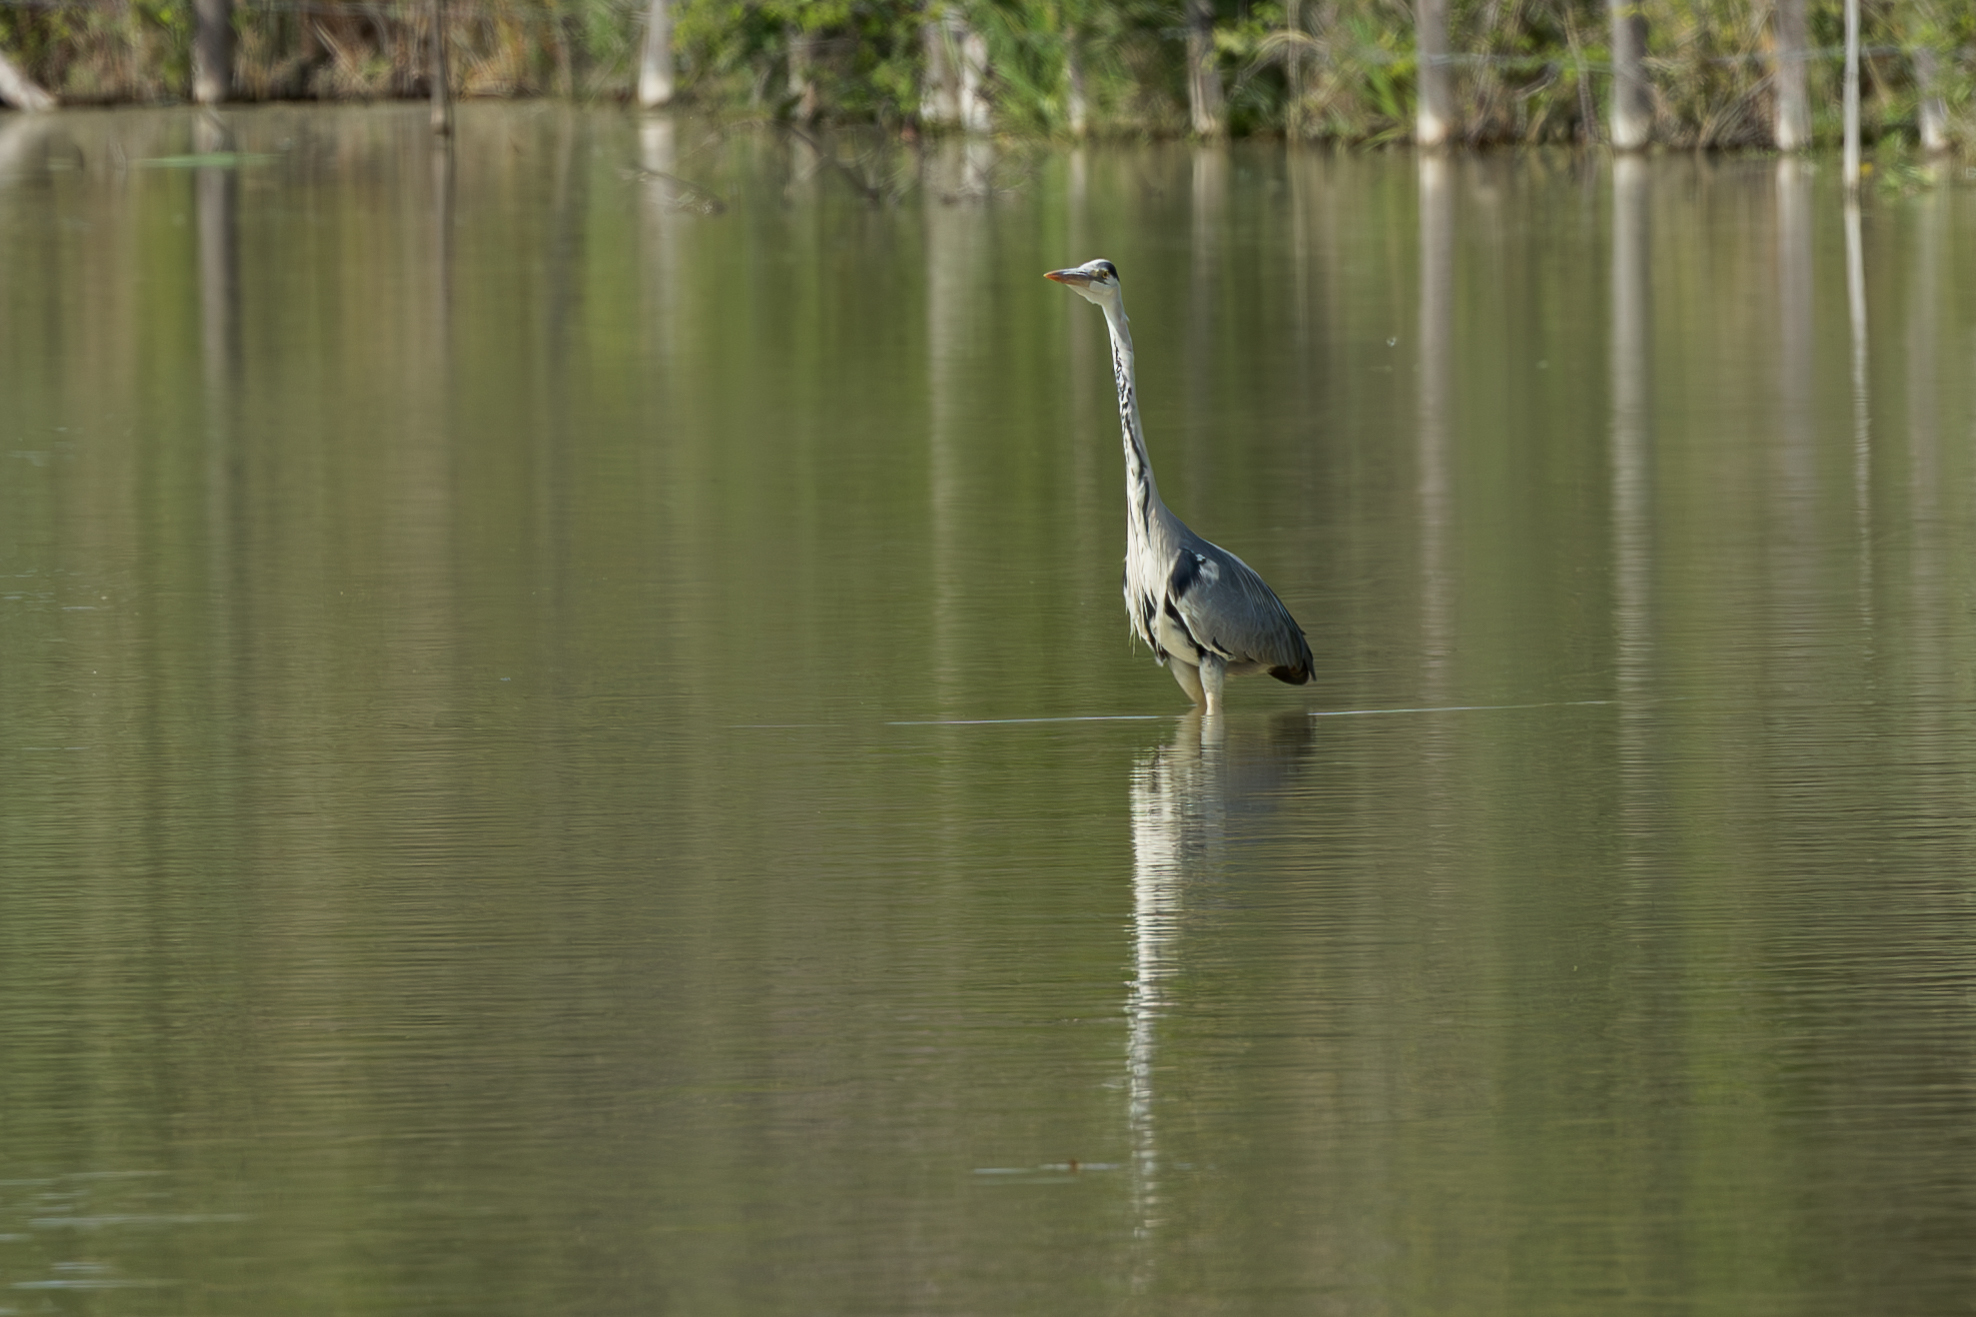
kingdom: Animalia
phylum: Chordata
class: Aves
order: Pelecaniformes
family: Ardeidae
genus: Ardea
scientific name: Ardea cinerea
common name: Grey heron
